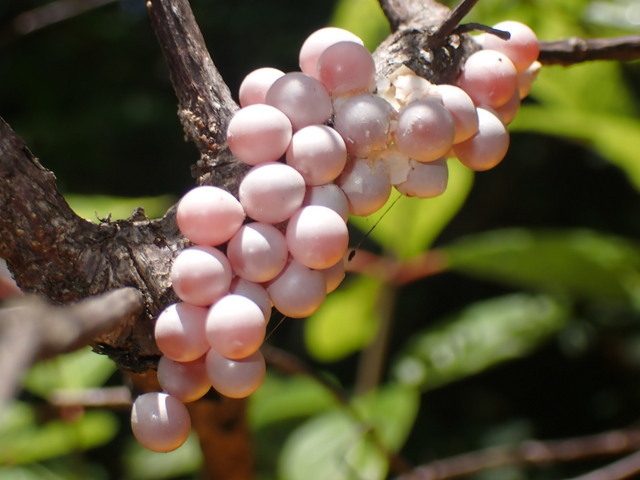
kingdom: Animalia
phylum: Mollusca
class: Gastropoda
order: Architaenioglossa
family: Ampullariidae
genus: Pomacea
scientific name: Pomacea paludosa
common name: Florida applesnail
